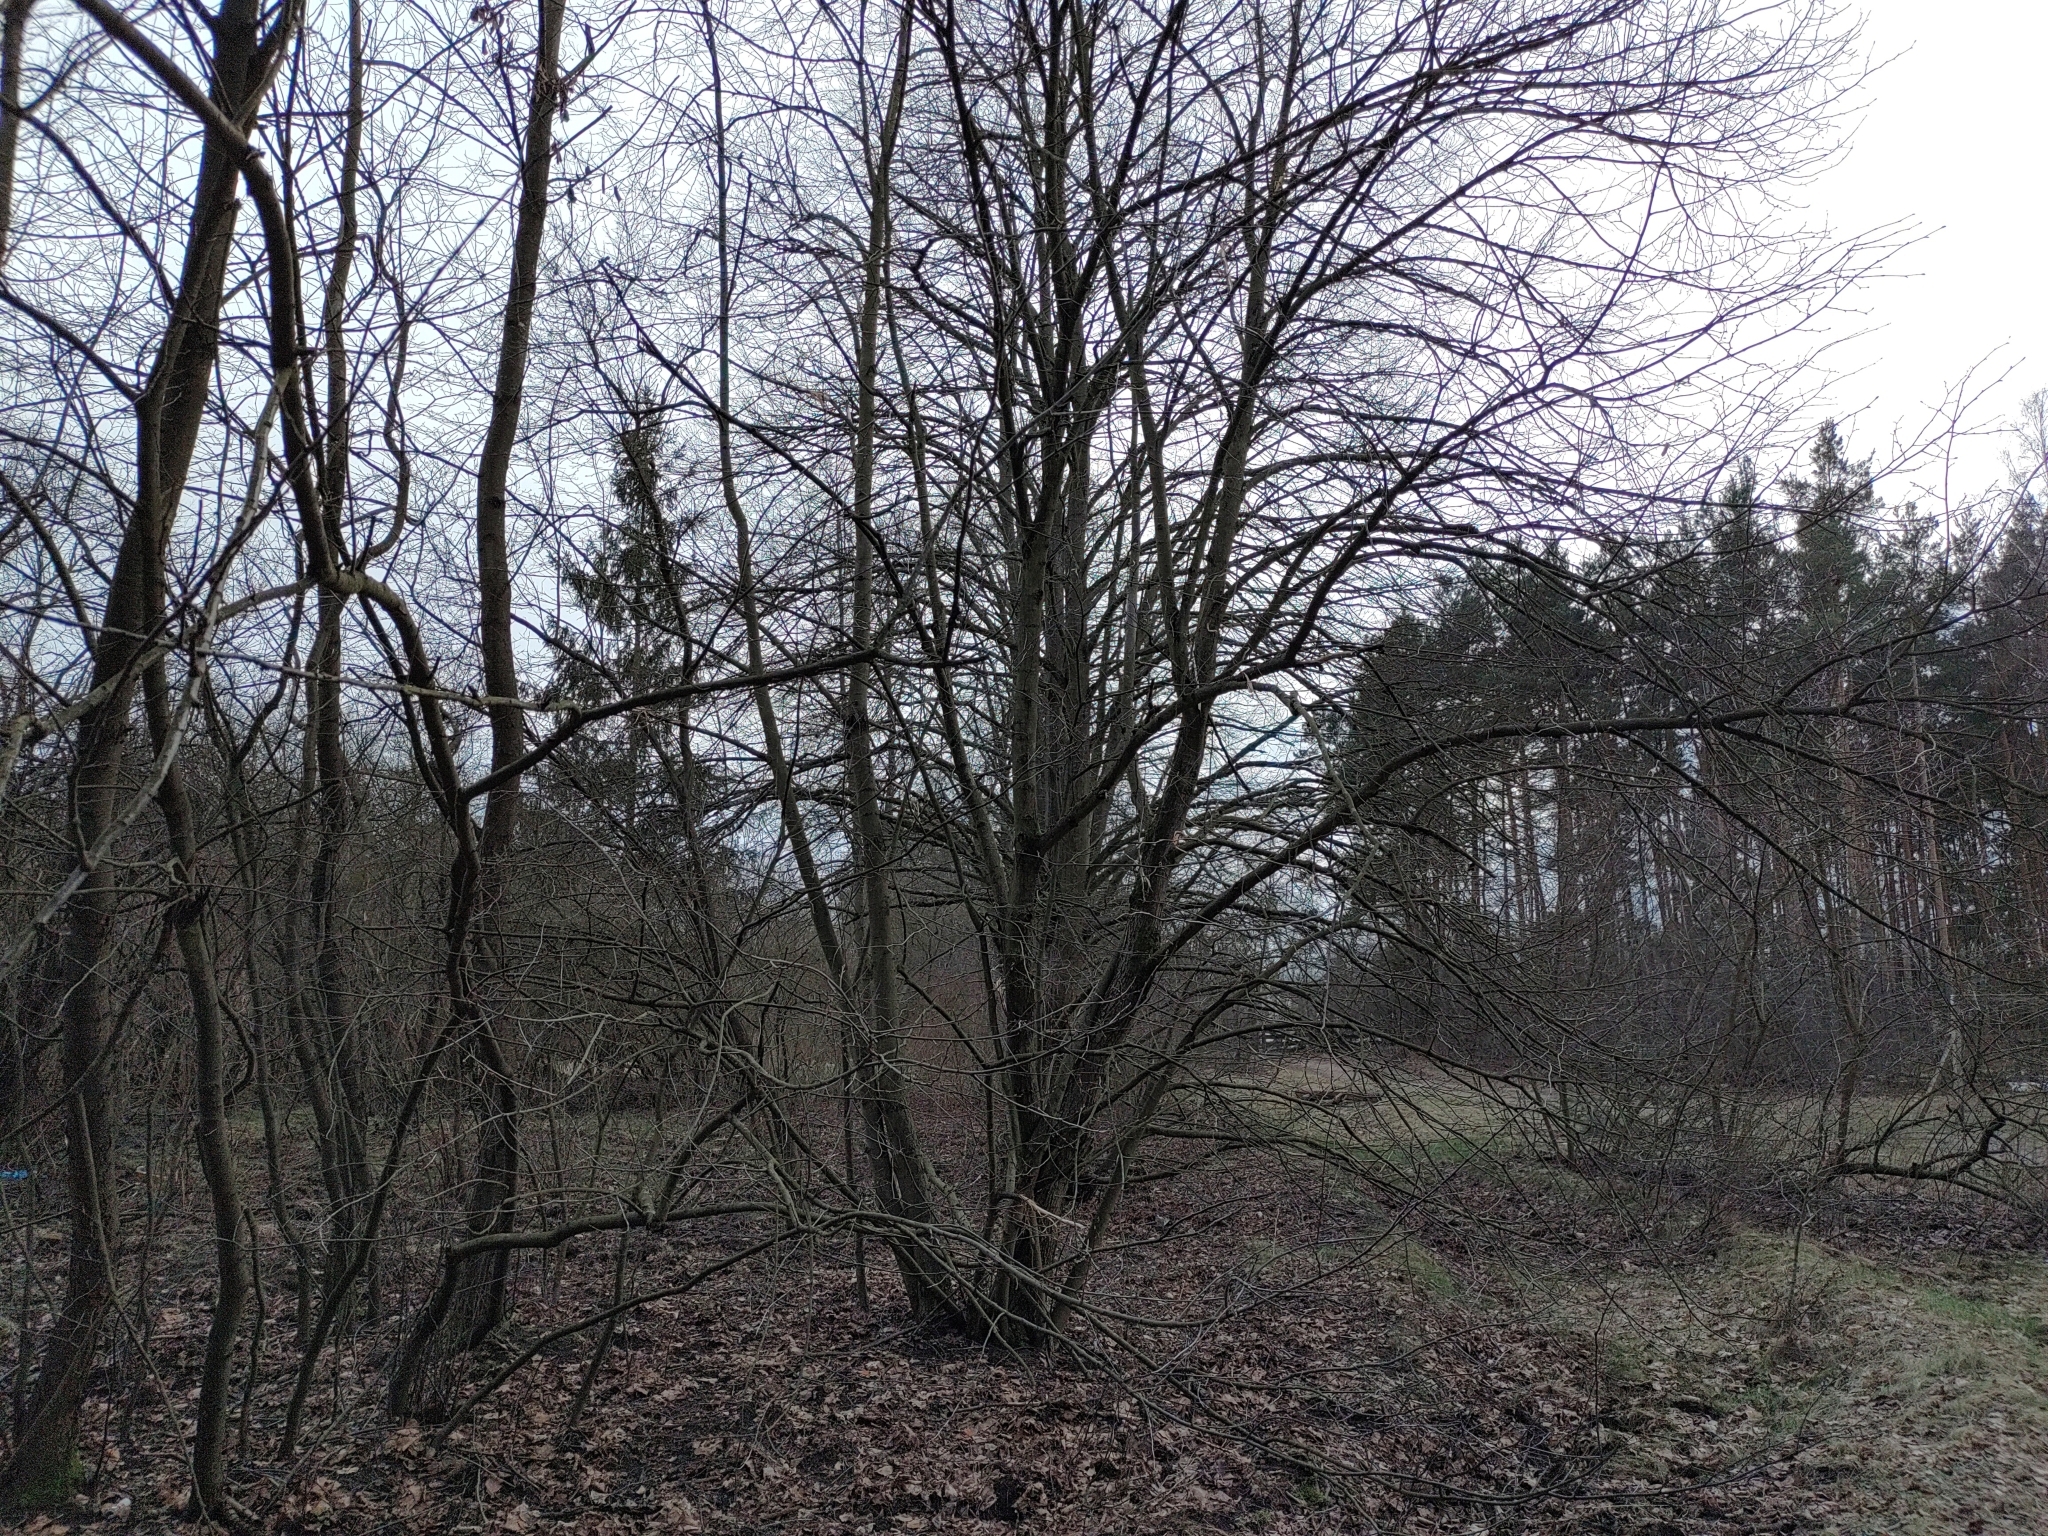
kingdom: Animalia
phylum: Chordata
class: Aves
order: Passeriformes
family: Paridae
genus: Parus
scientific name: Parus major
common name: Great tit
